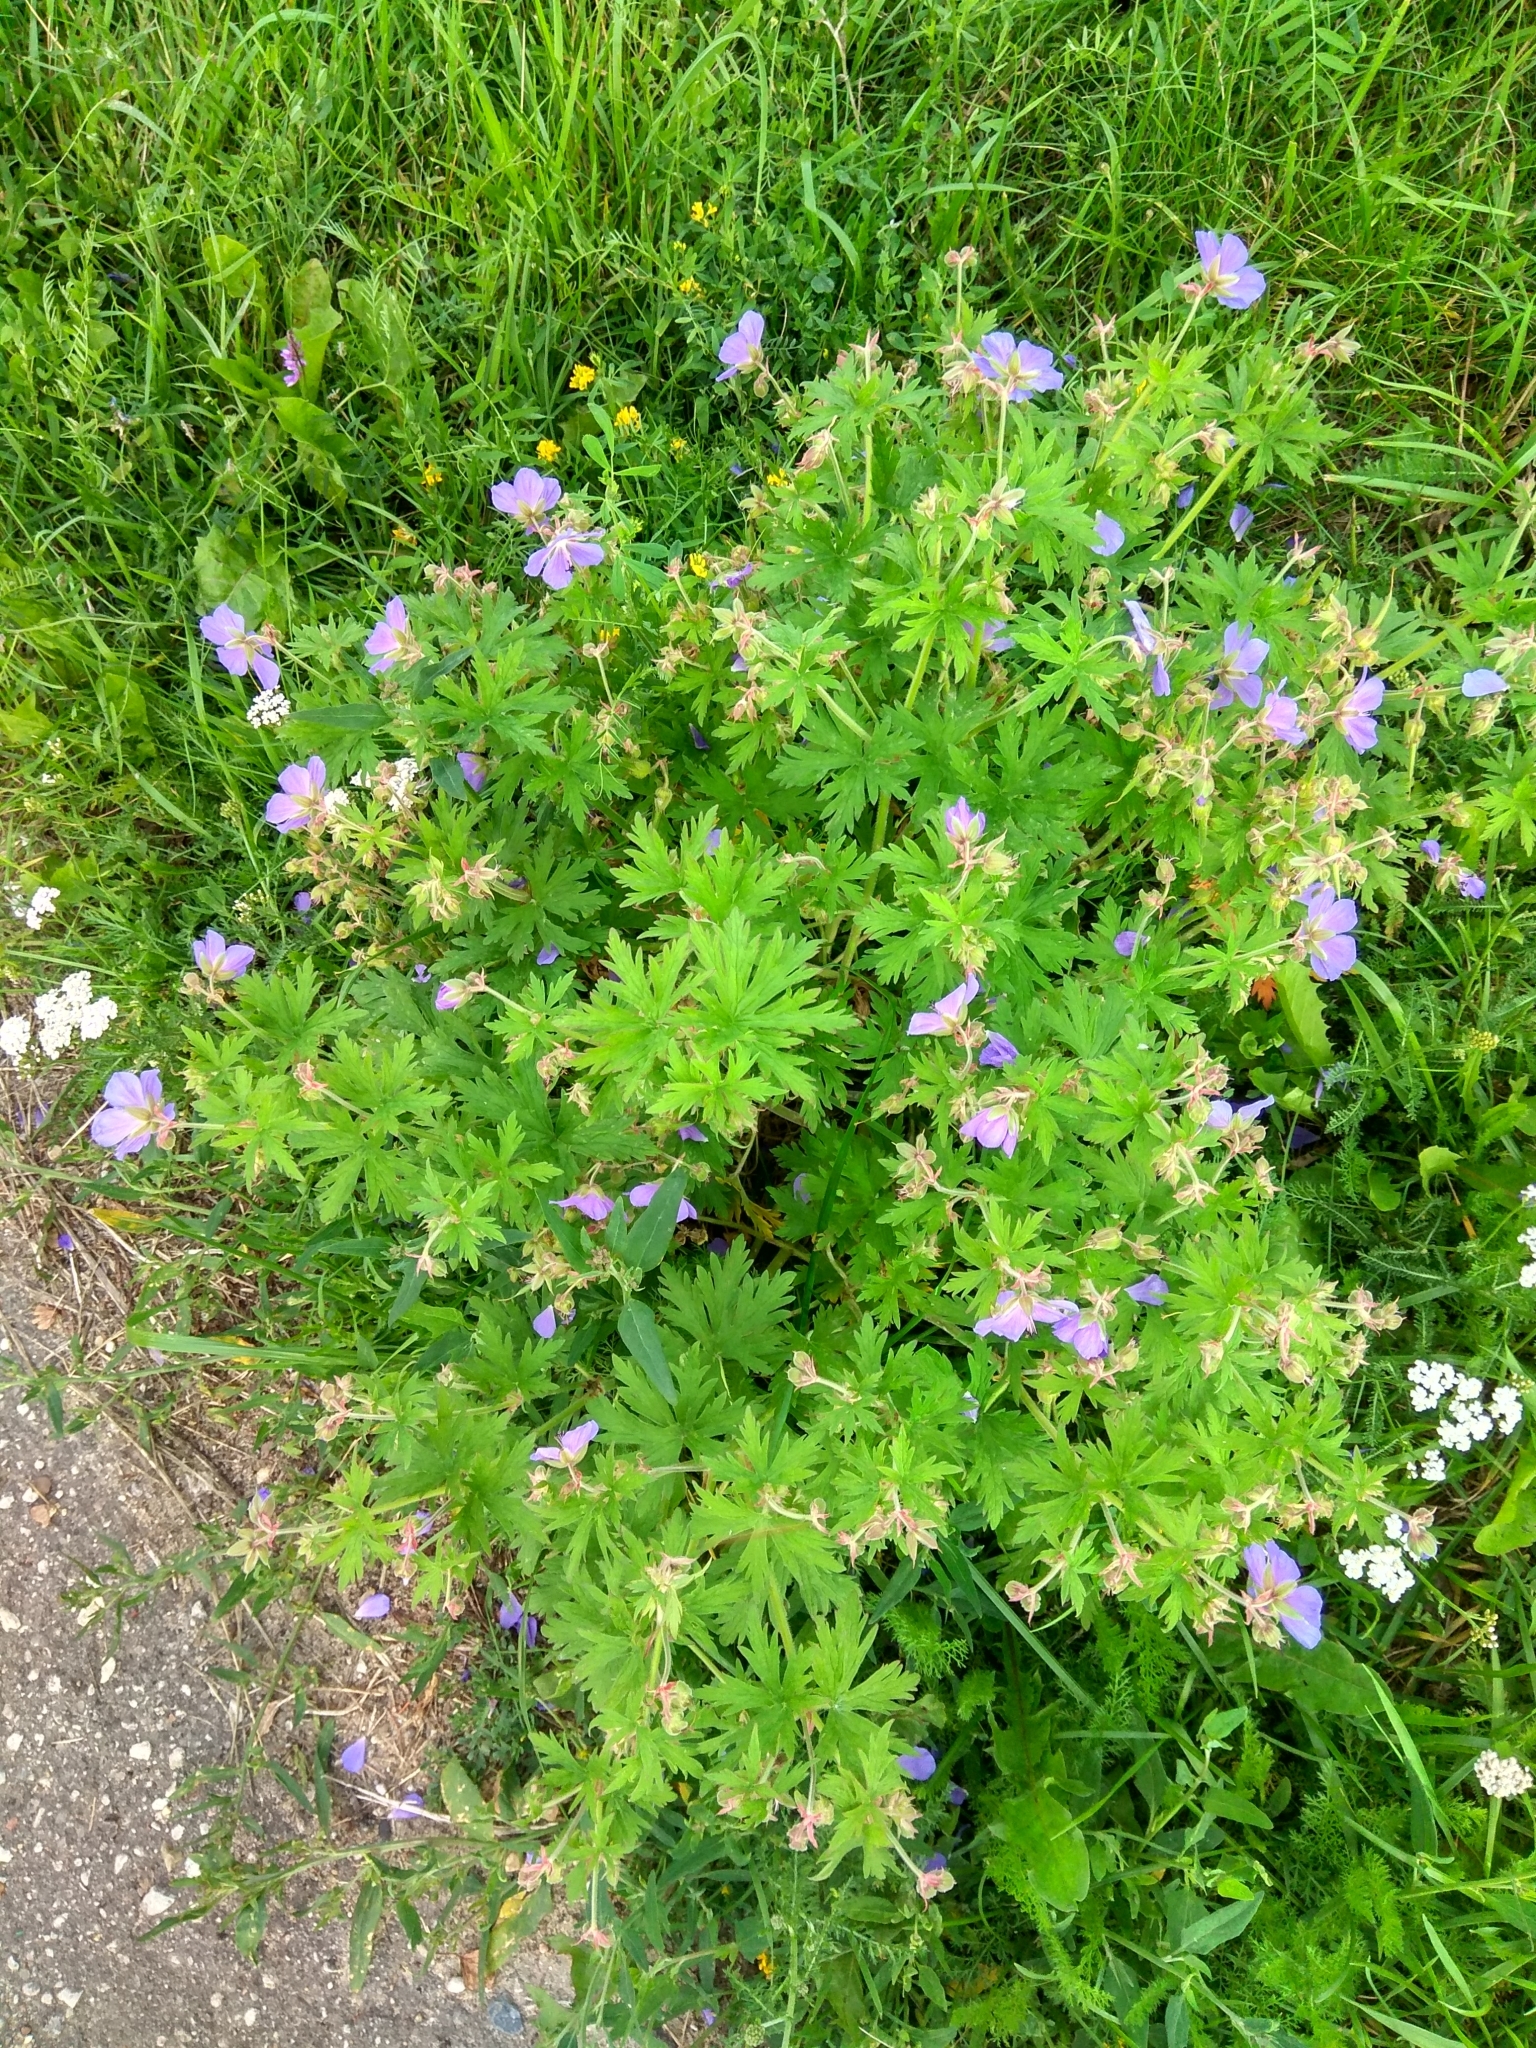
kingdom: Plantae
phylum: Tracheophyta
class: Magnoliopsida
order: Geraniales
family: Geraniaceae
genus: Geranium
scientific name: Geranium pratense
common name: Meadow crane's-bill
